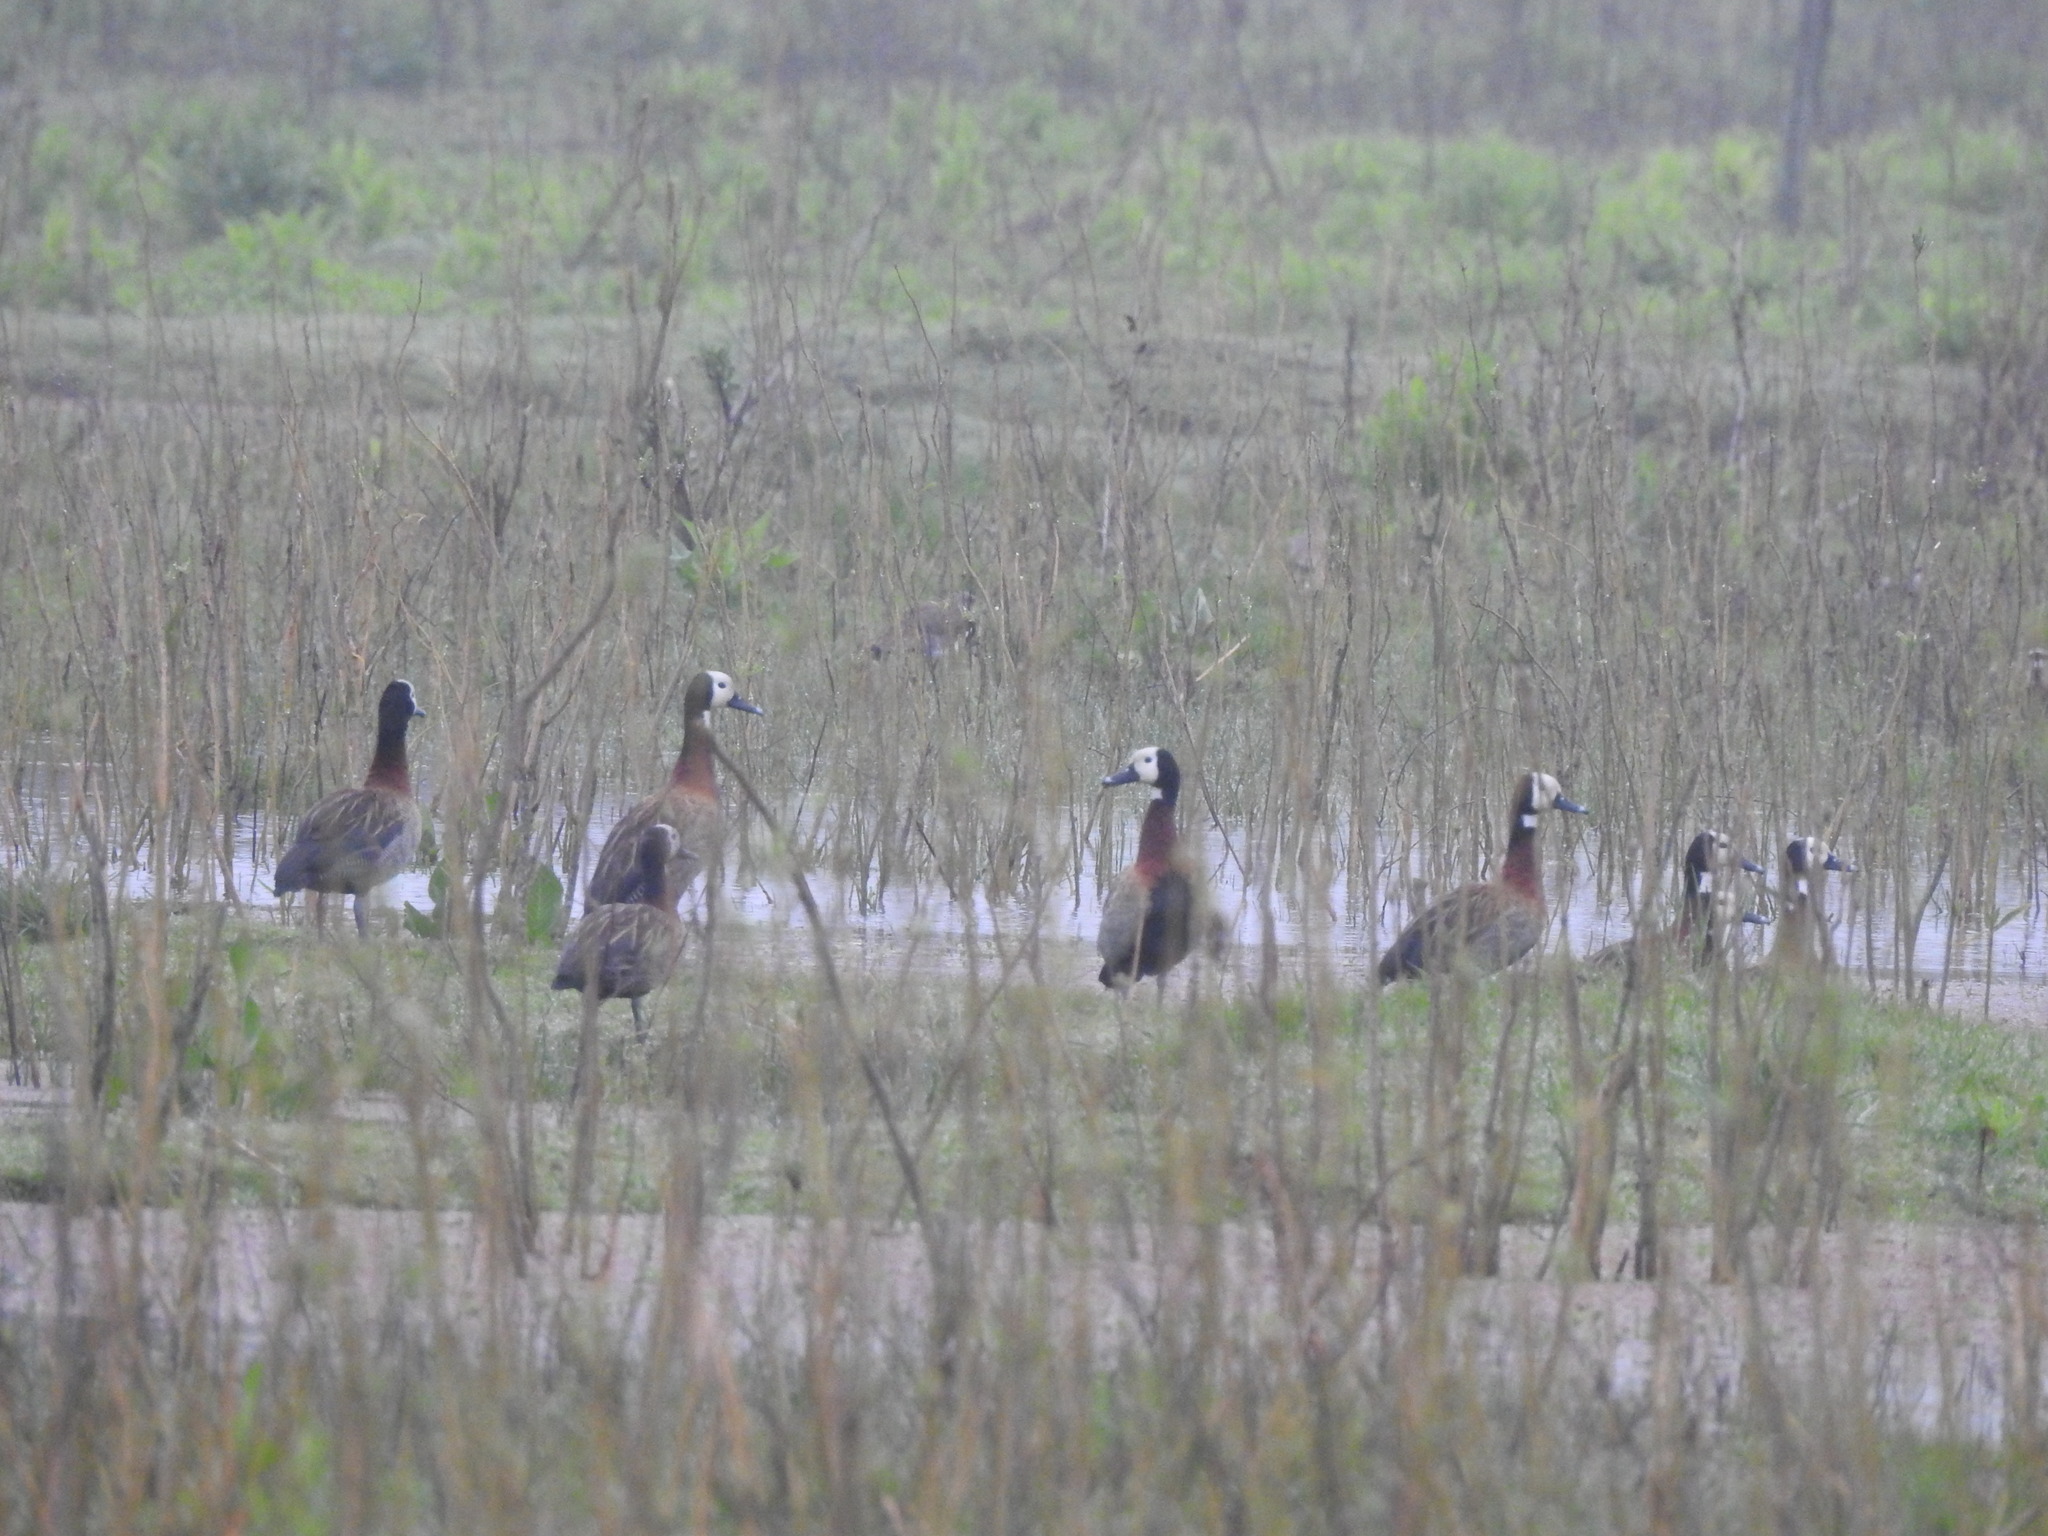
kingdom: Animalia
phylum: Chordata
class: Aves
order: Anseriformes
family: Anatidae
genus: Dendrocygna
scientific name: Dendrocygna viduata
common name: White-faced whistling duck
